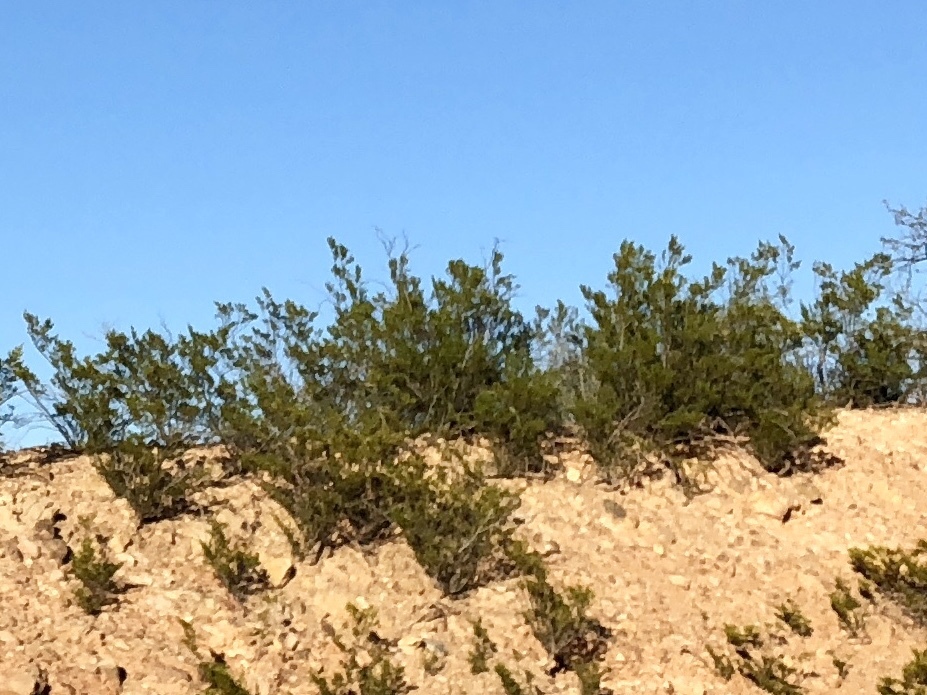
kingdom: Plantae
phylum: Tracheophyta
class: Magnoliopsida
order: Zygophyllales
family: Zygophyllaceae
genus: Larrea
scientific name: Larrea tridentata
